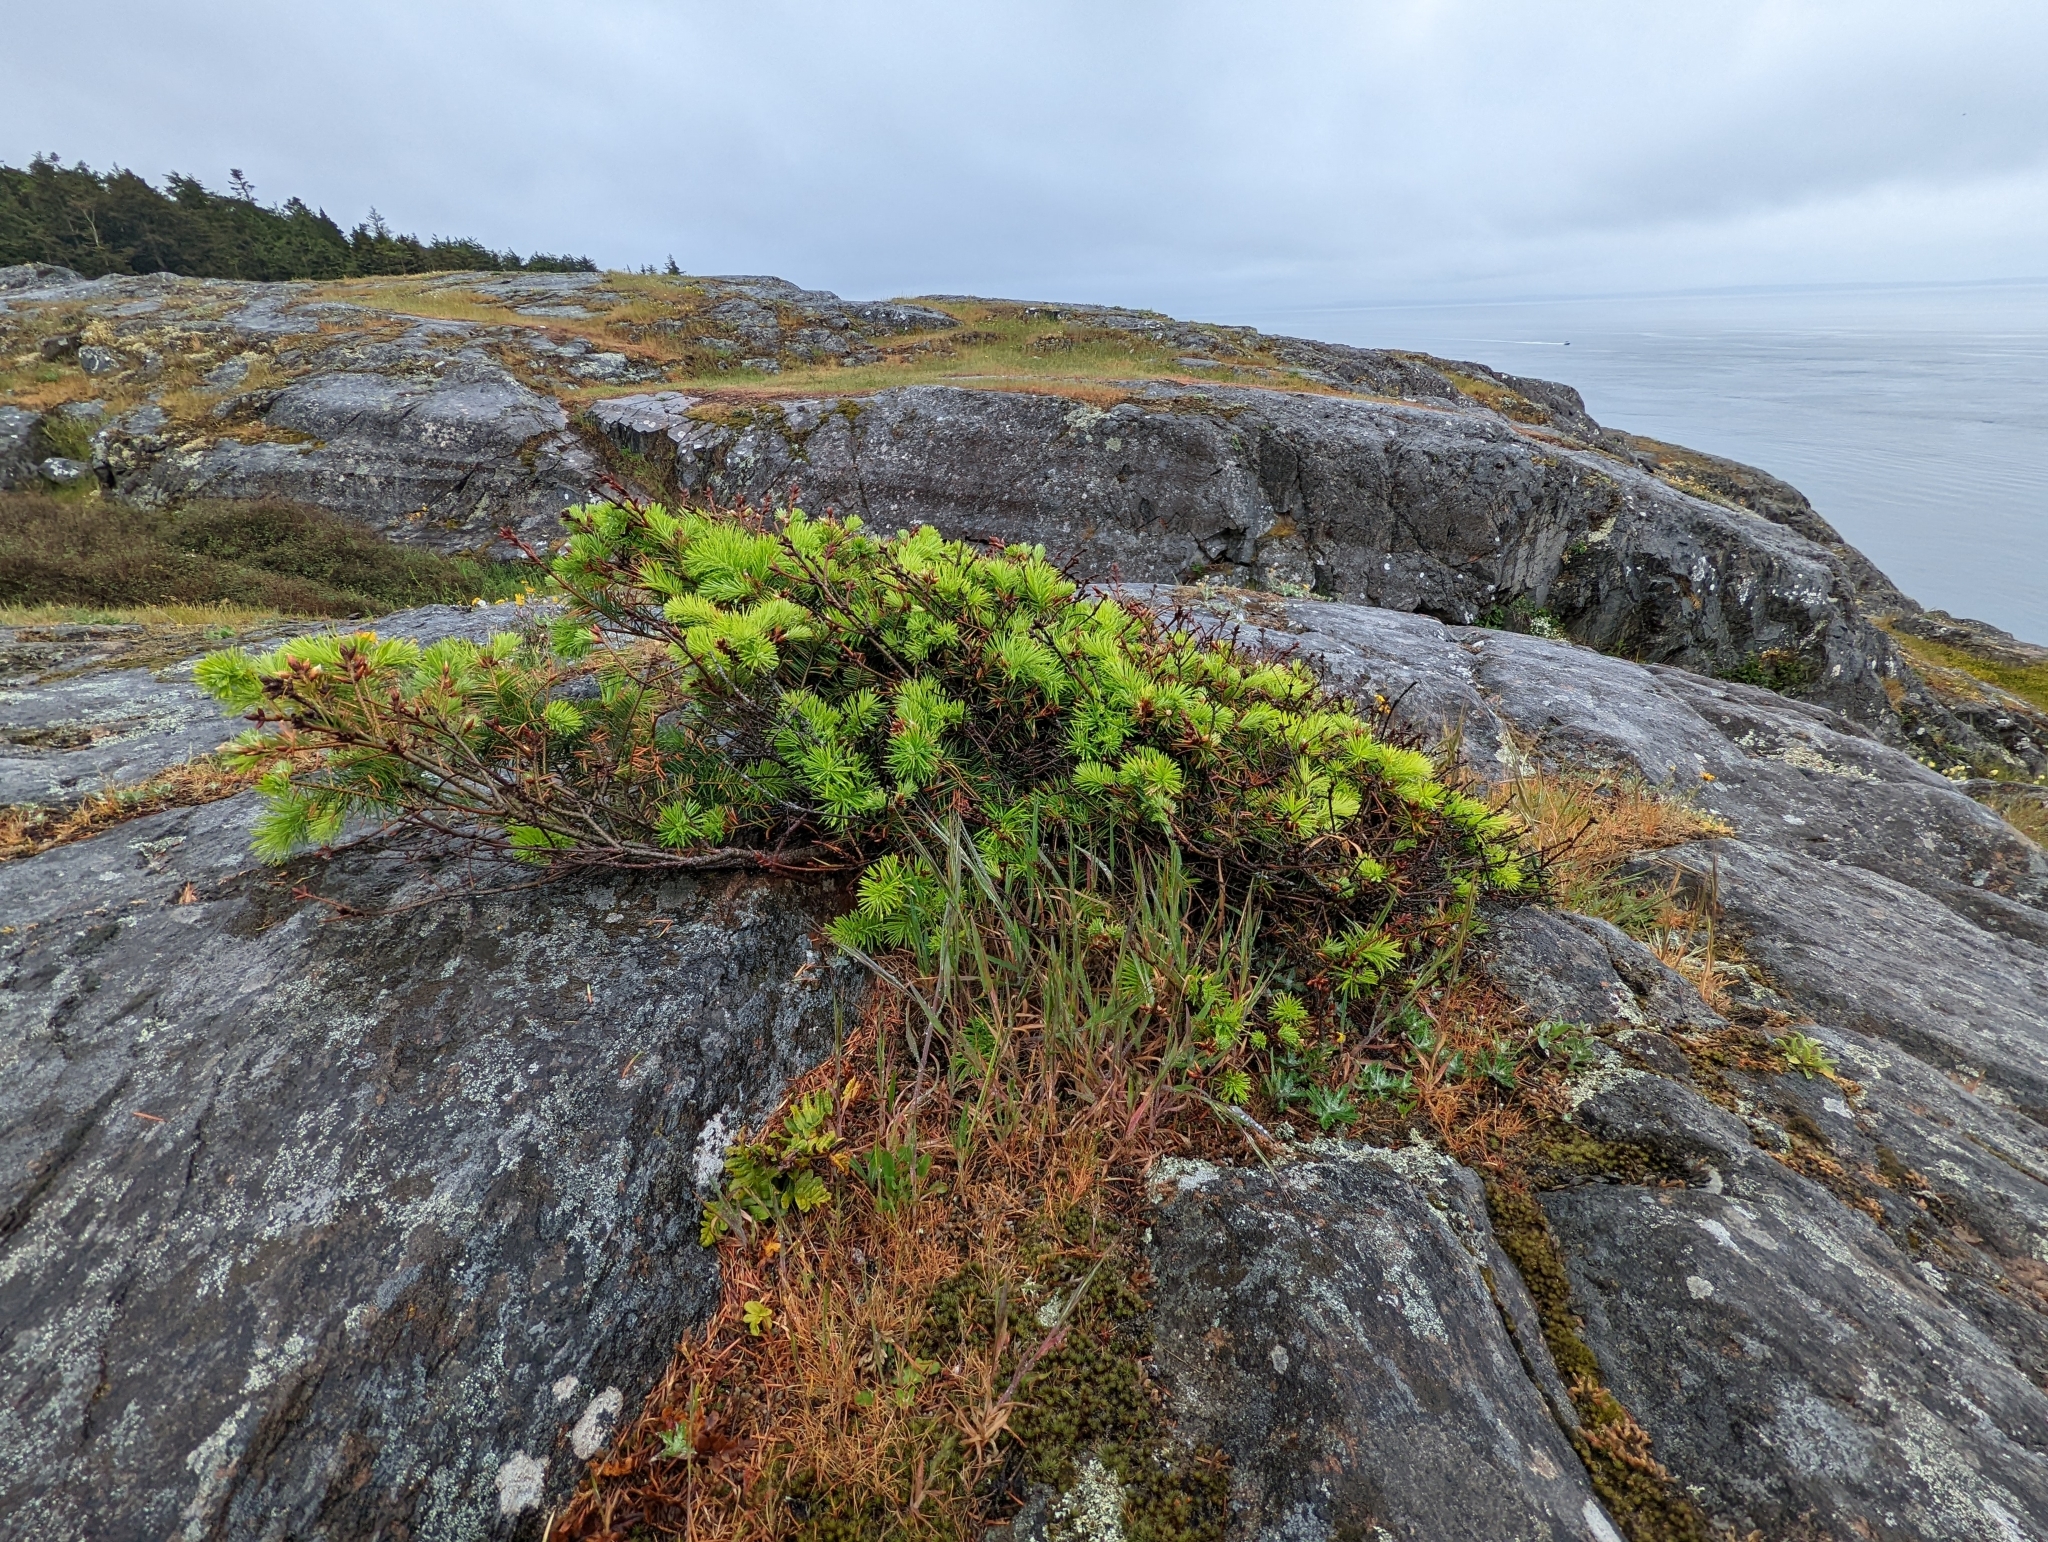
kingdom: Plantae
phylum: Tracheophyta
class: Pinopsida
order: Pinales
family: Pinaceae
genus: Pseudotsuga
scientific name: Pseudotsuga menziesii
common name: Douglas fir
